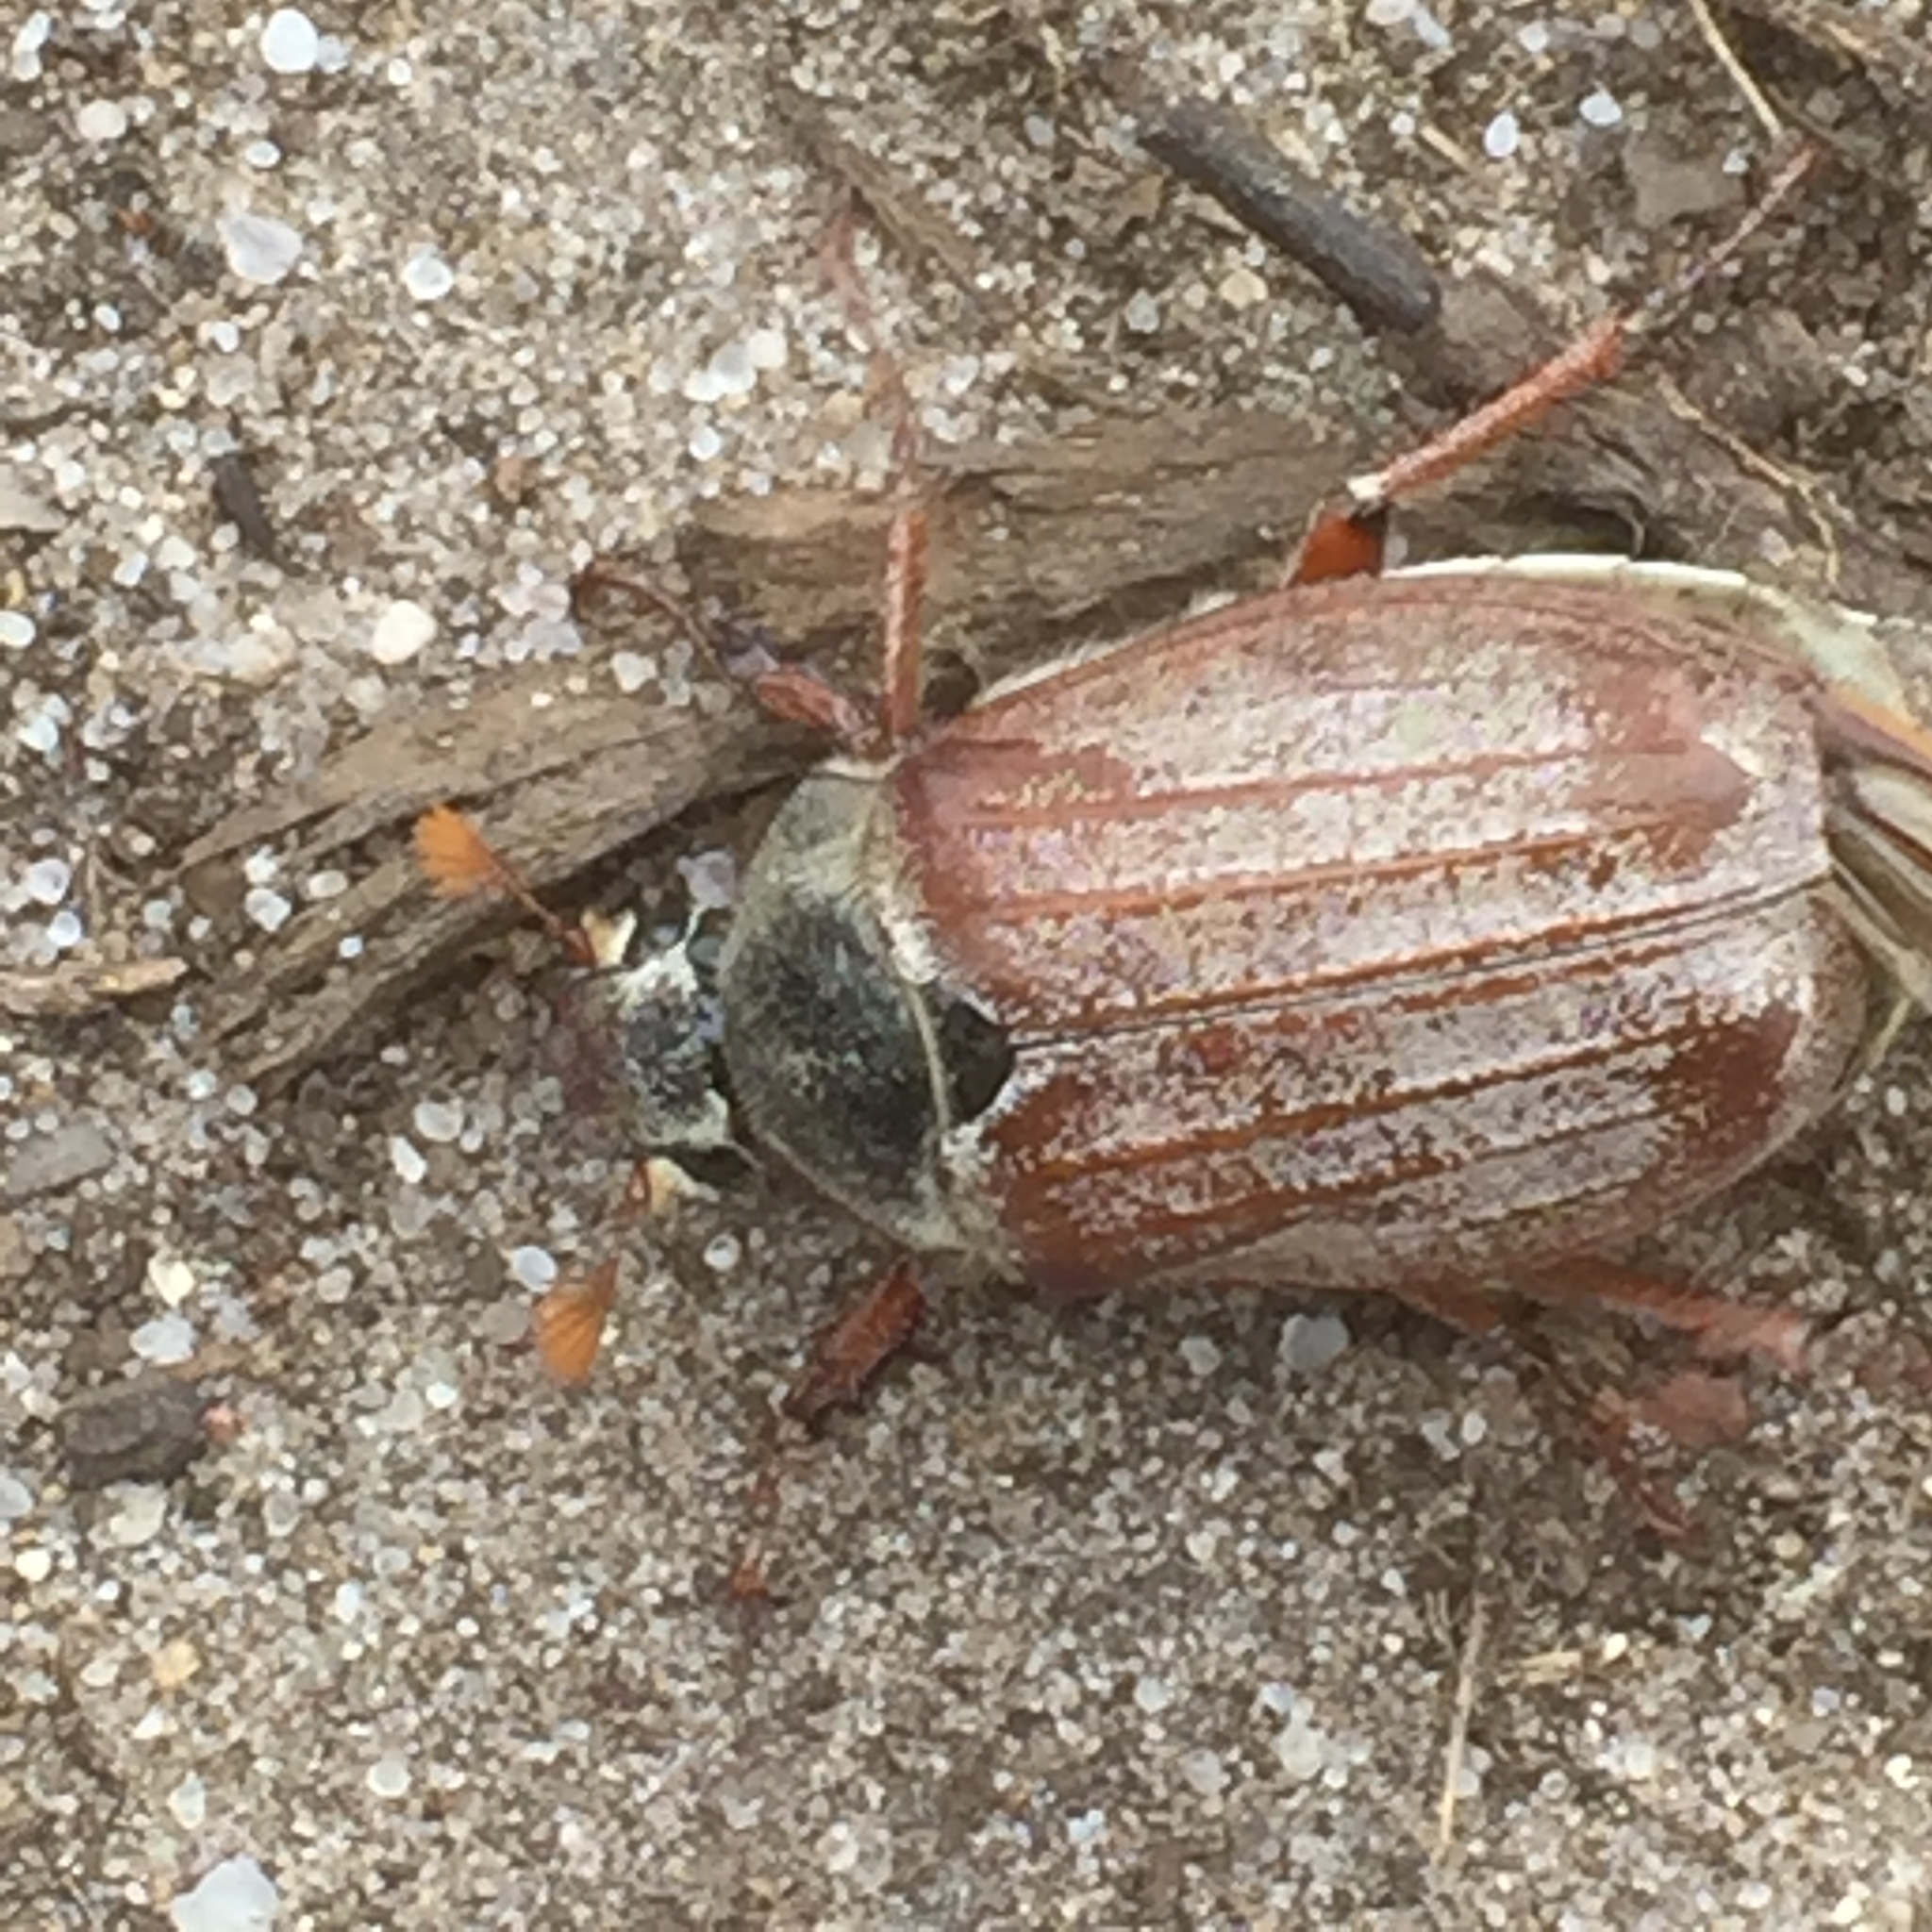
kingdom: Animalia
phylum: Arthropoda
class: Insecta
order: Coleoptera
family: Scarabaeidae
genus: Melolontha
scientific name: Melolontha melolontha
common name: Cockchafer maybeetle
